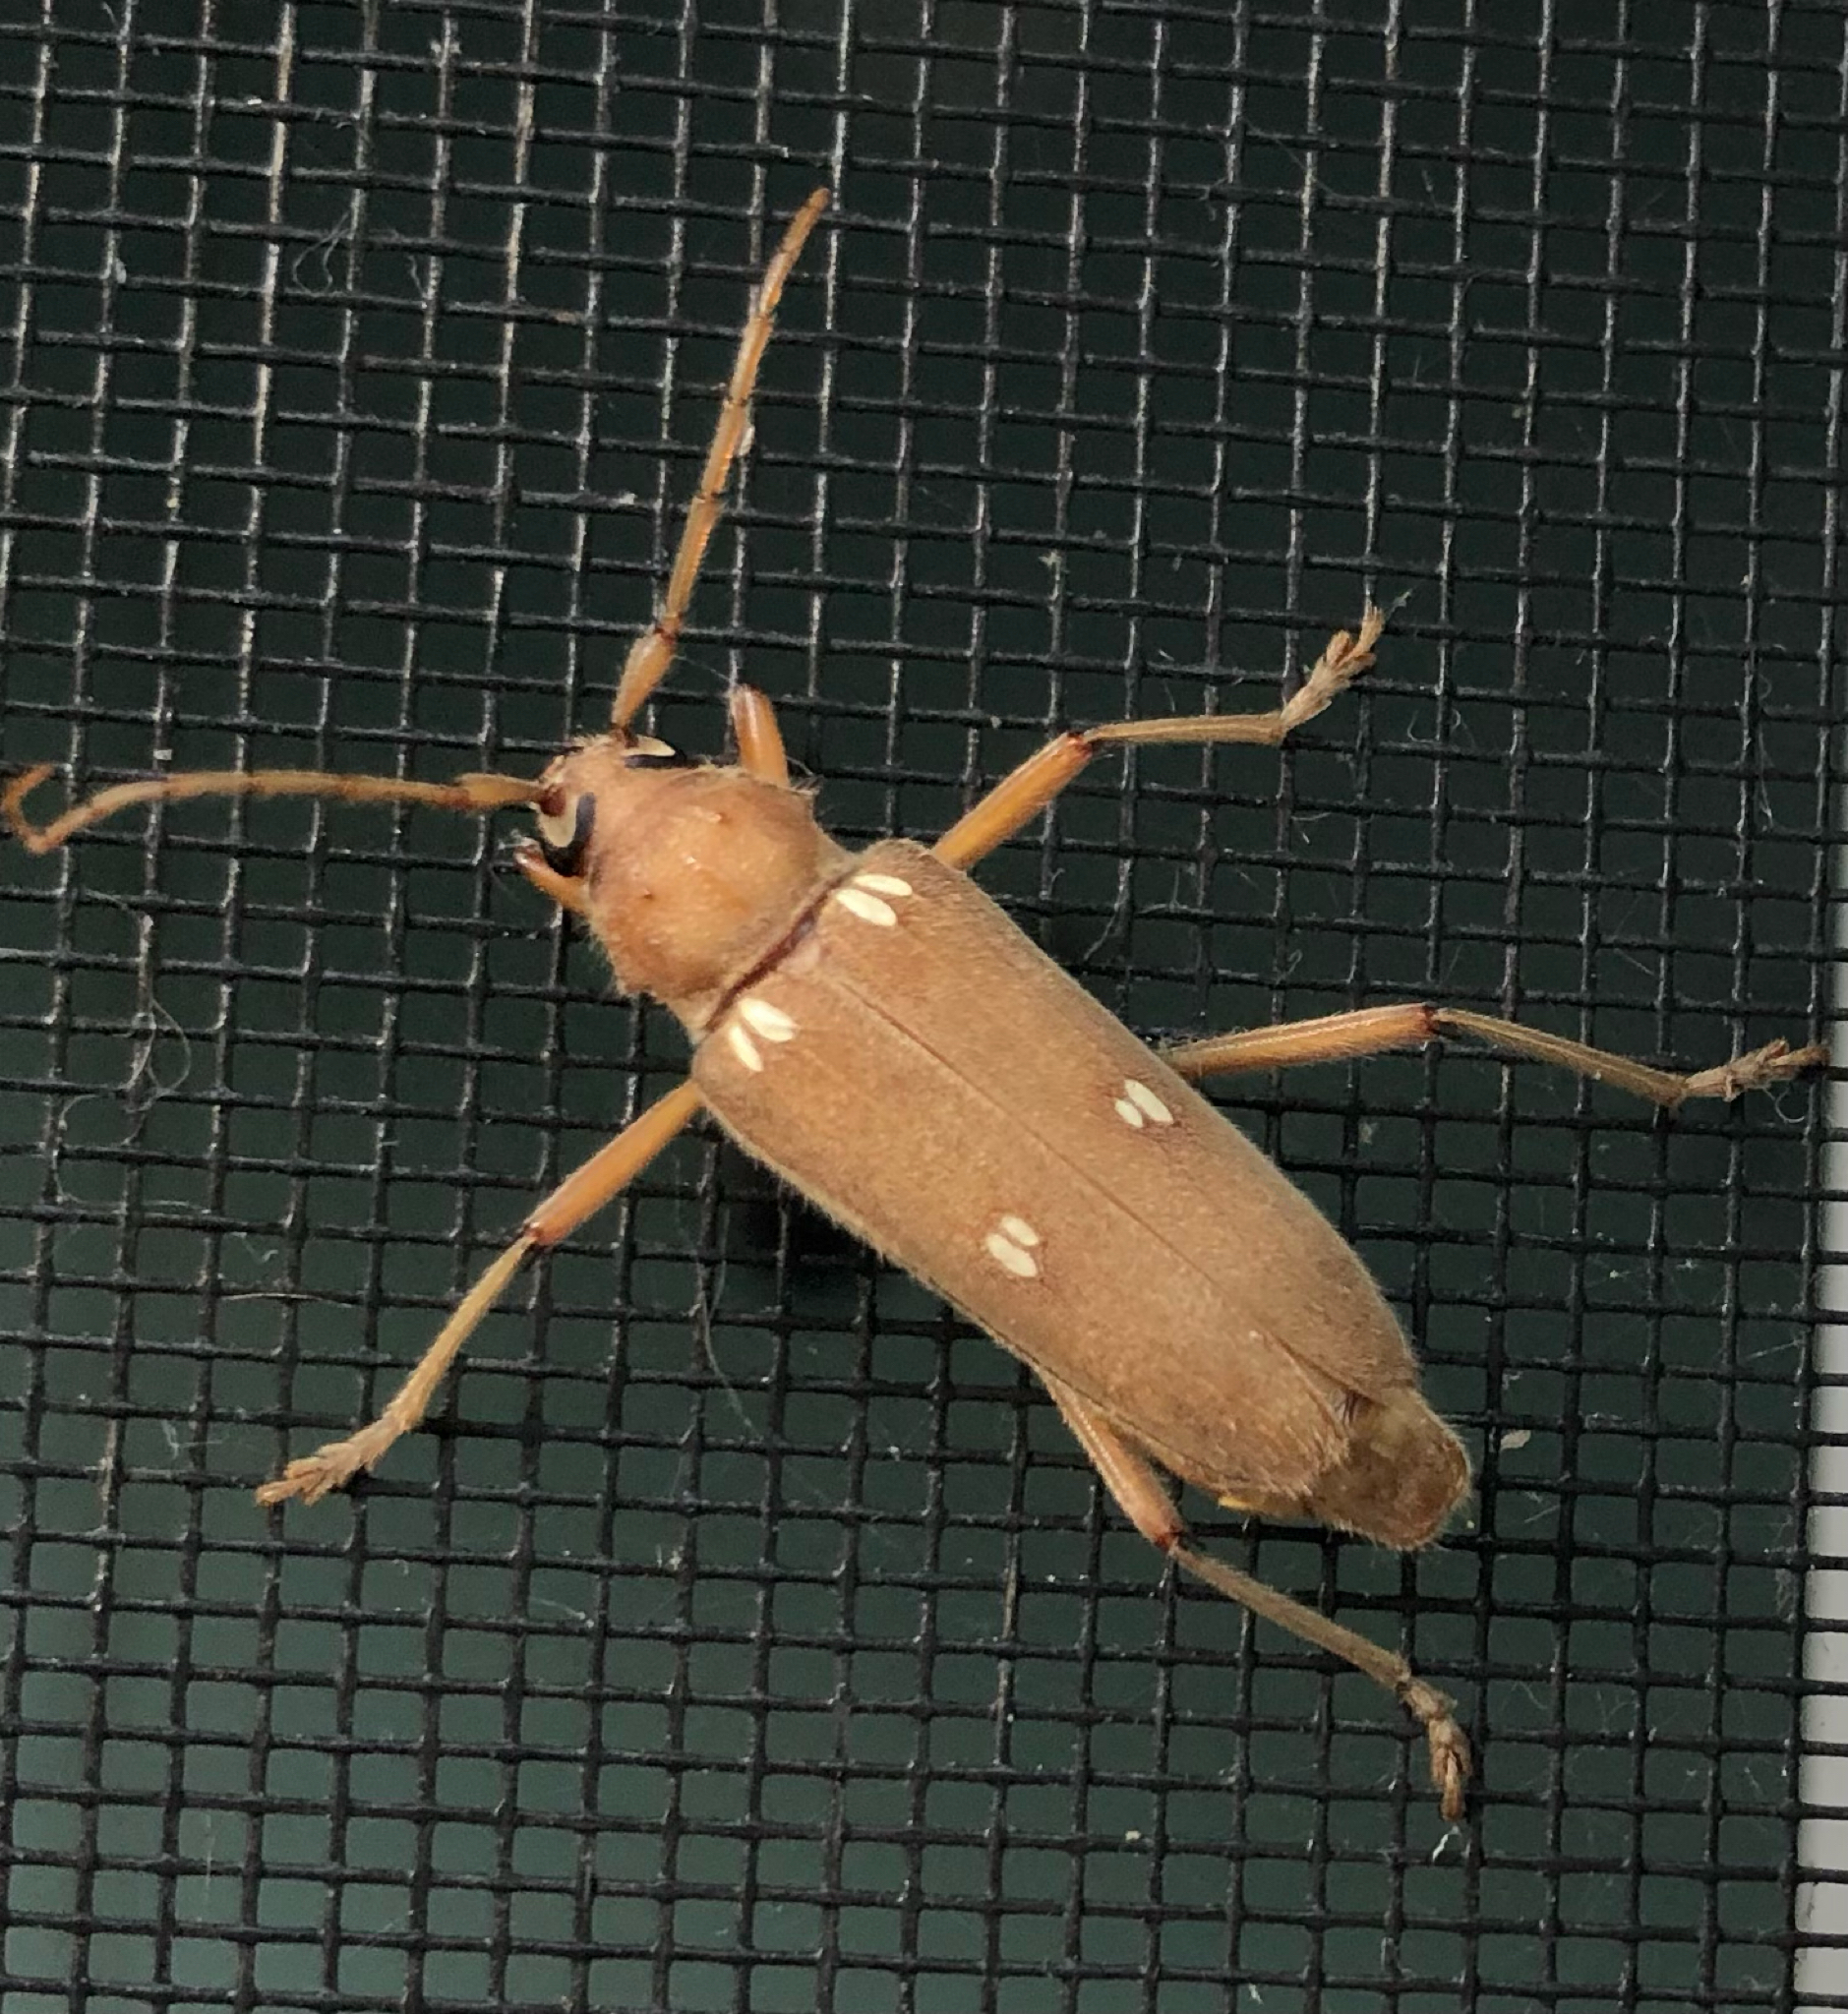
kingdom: Animalia
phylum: Arthropoda
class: Insecta
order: Coleoptera
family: Cerambycidae
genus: Eburia
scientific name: Eburia quadrigeminata
